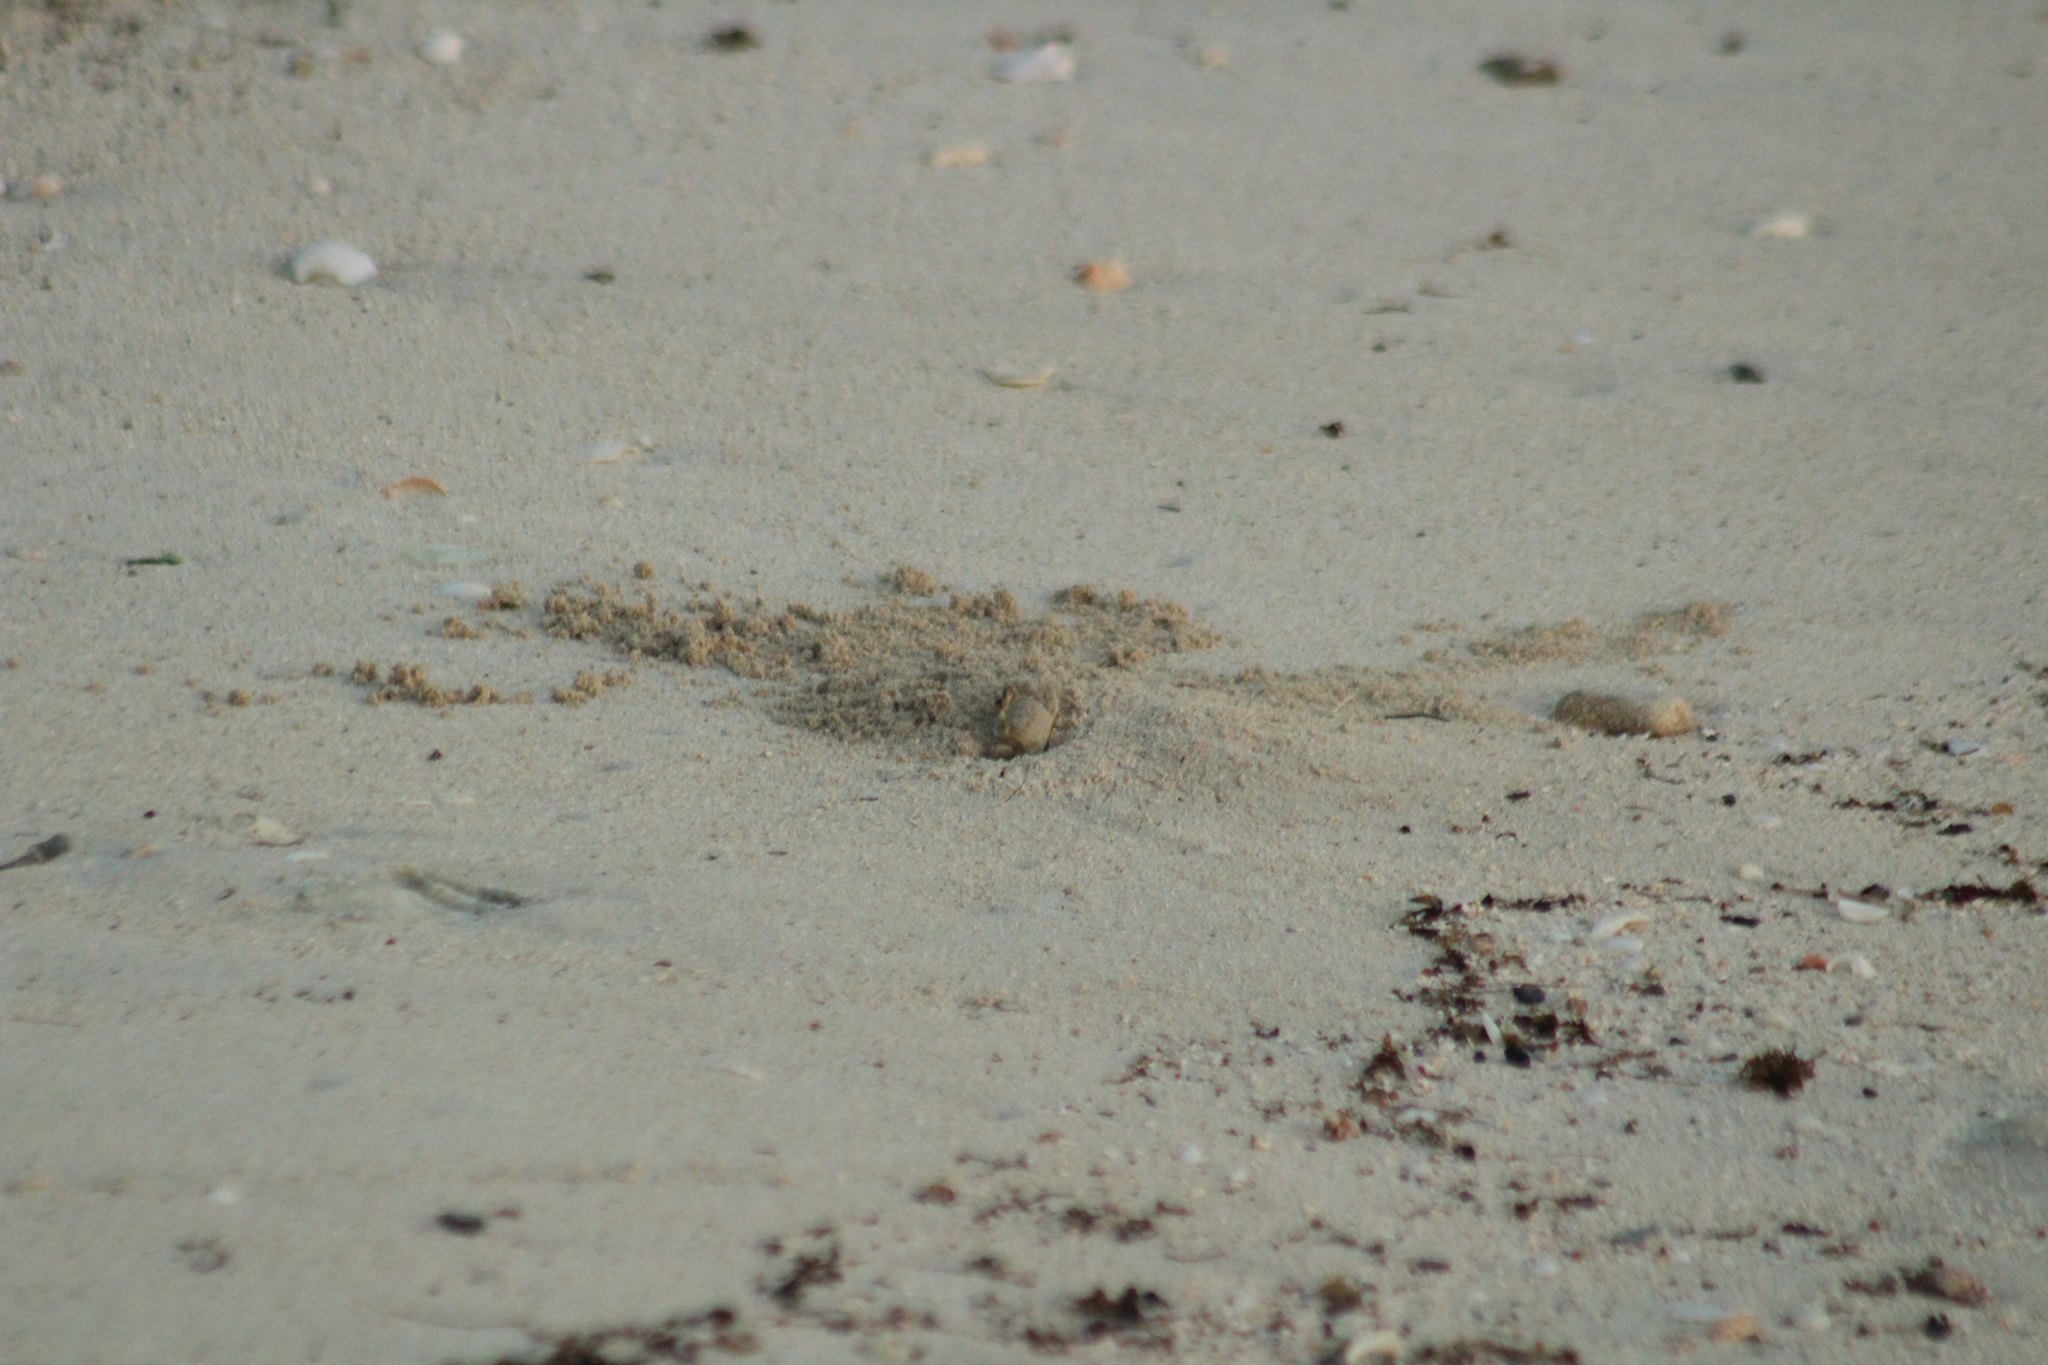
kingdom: Animalia
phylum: Arthropoda
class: Malacostraca
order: Decapoda
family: Ocypodidae
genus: Ocypode
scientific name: Ocypode quadrata
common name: Ghost crab
